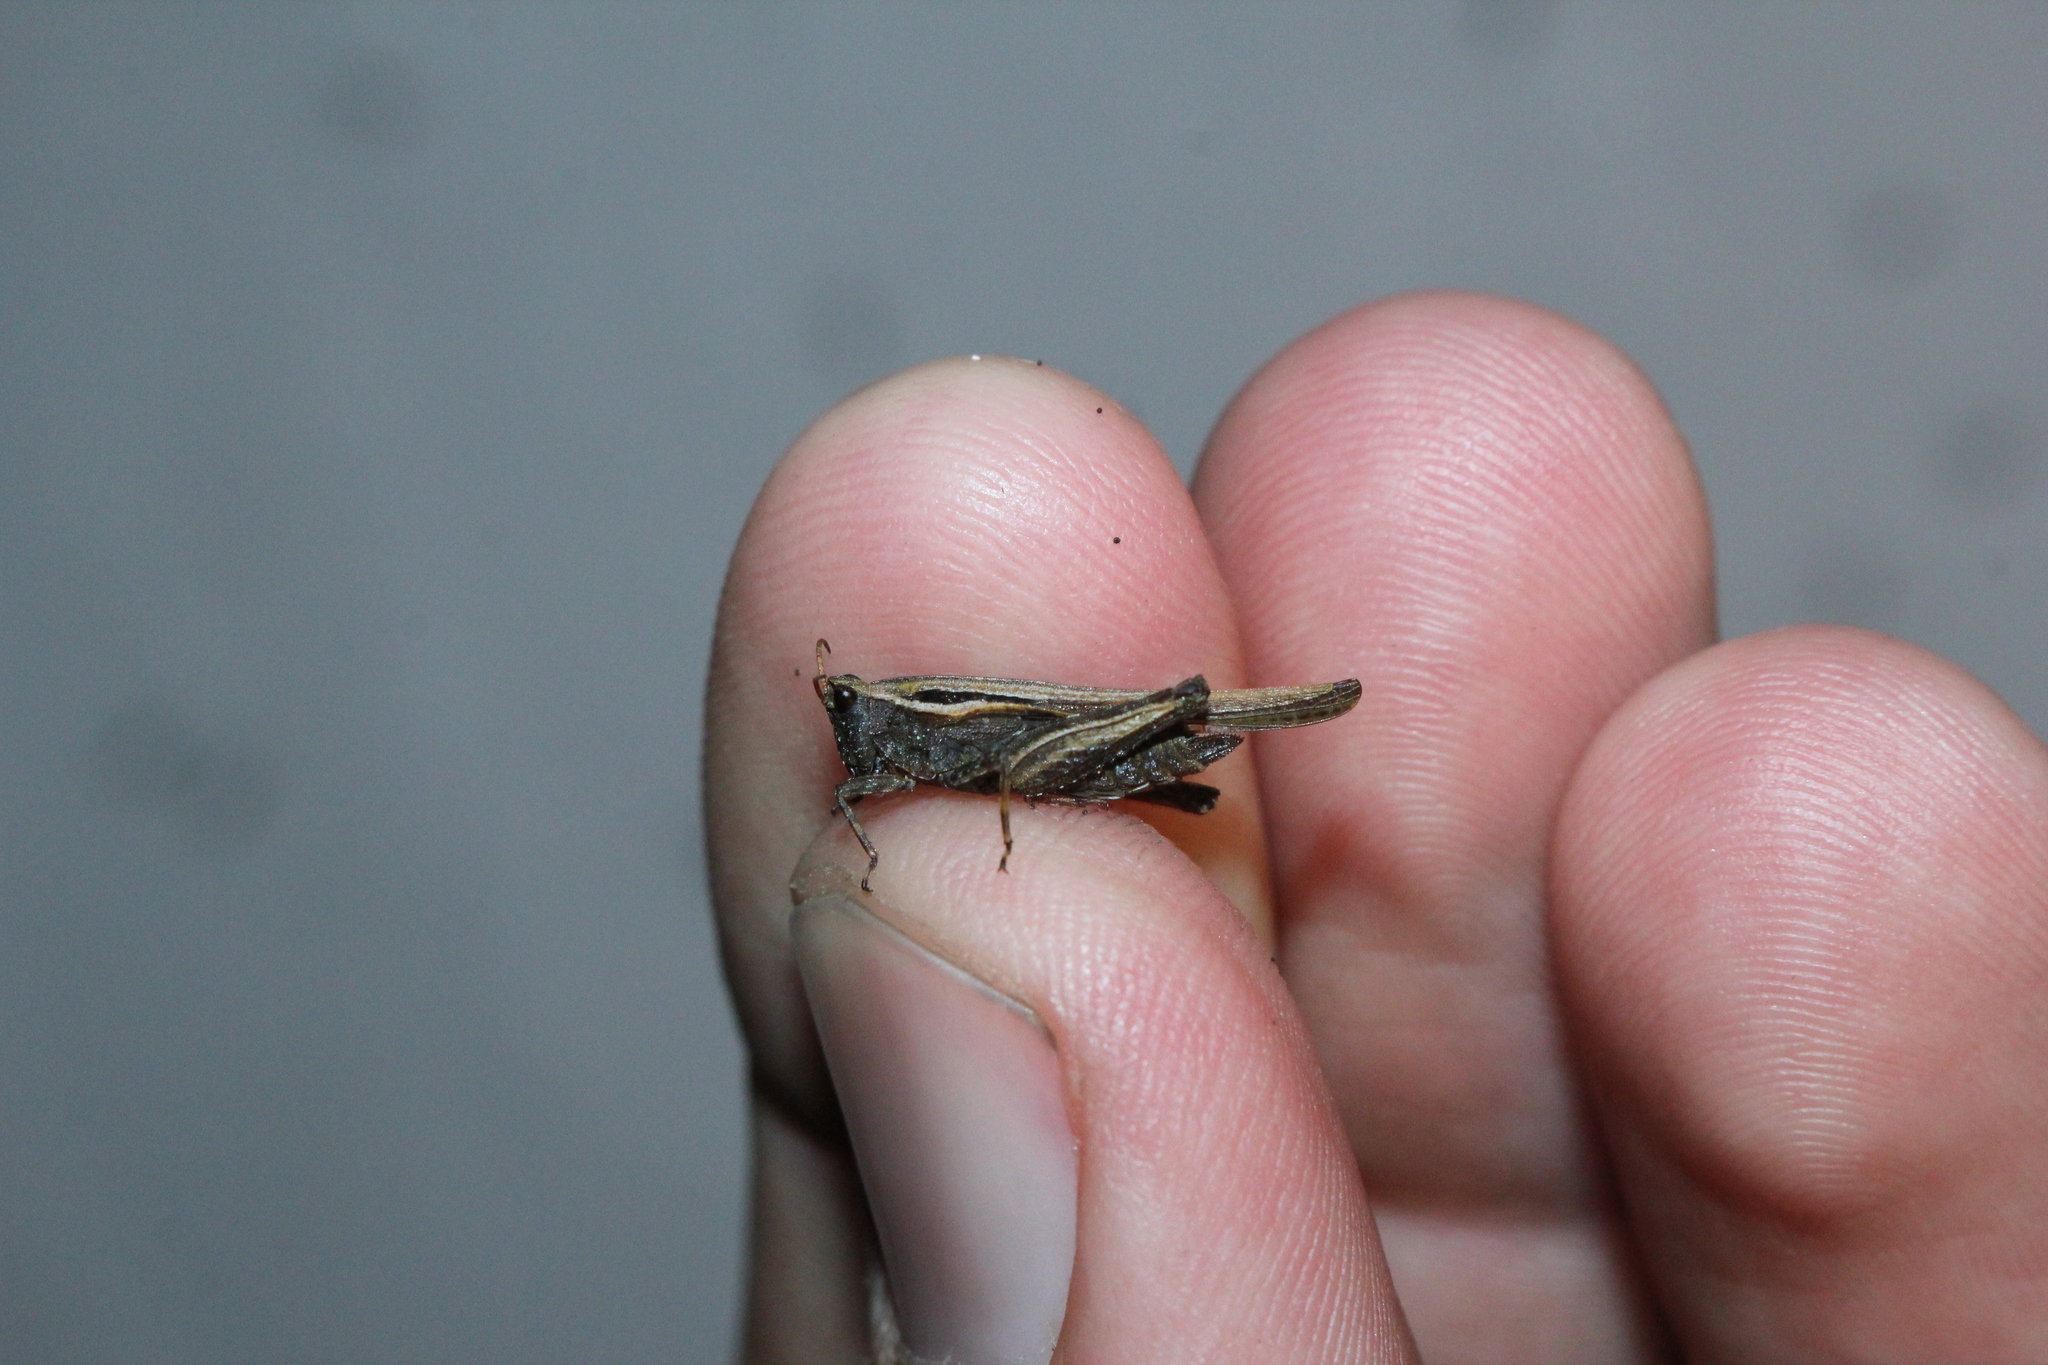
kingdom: Animalia
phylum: Arthropoda
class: Insecta
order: Orthoptera
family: Tetrigidae
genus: Tetrix
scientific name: Tetrix subulata
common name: Slender ground-hopper
